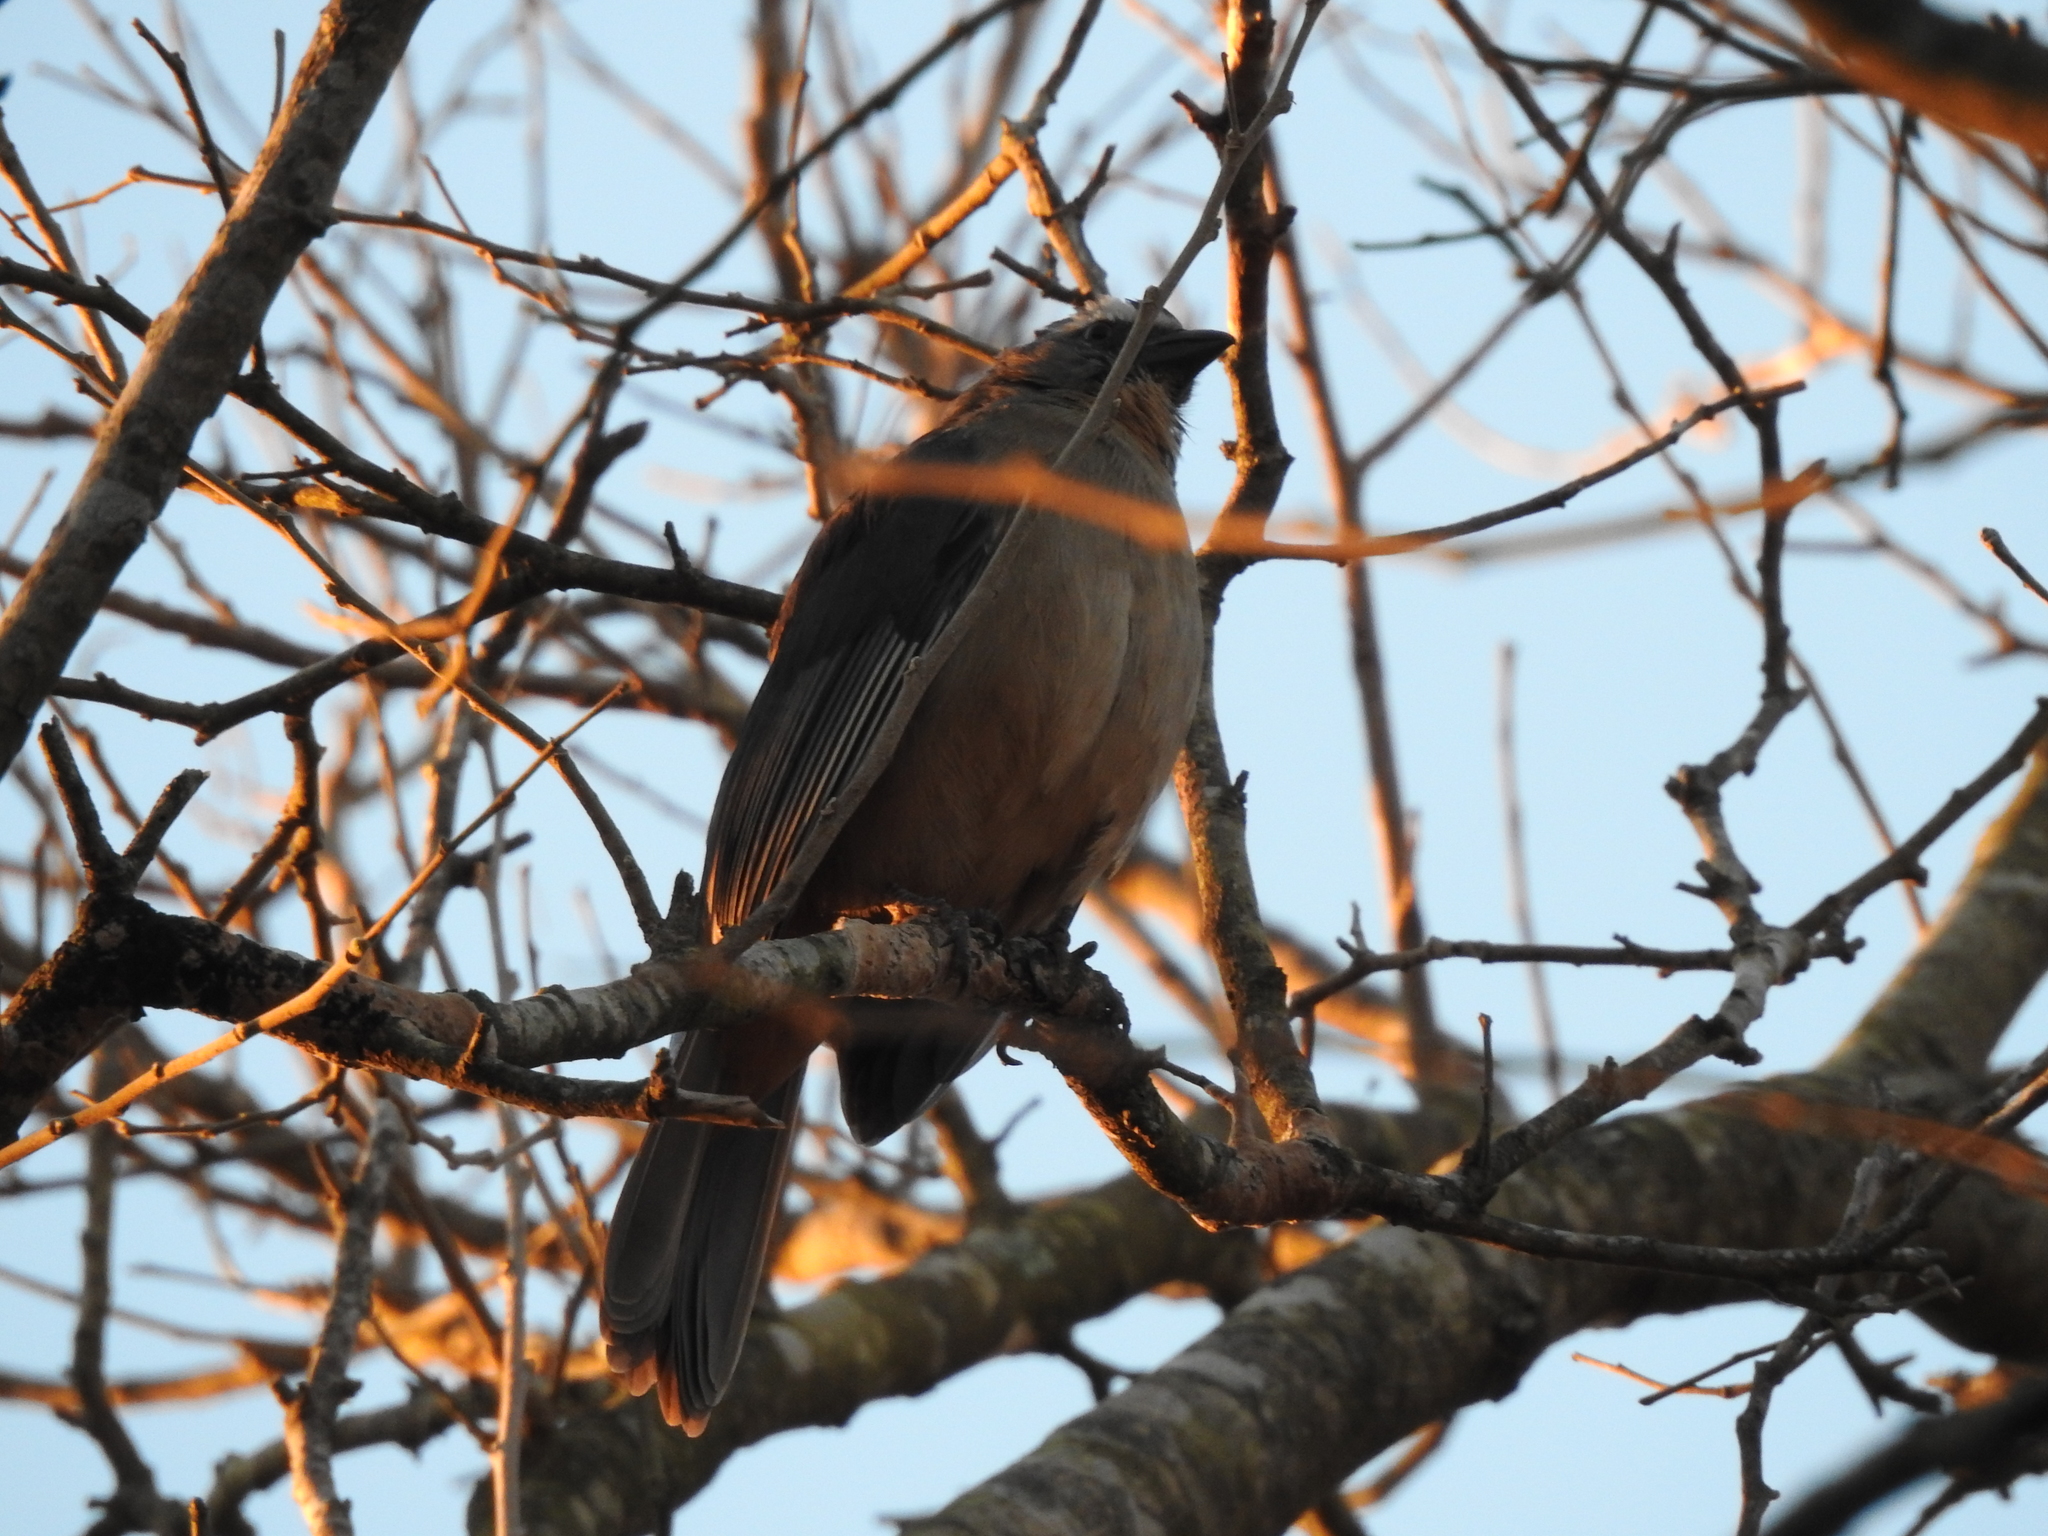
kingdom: Animalia
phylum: Chordata
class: Aves
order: Passeriformes
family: Thraupidae
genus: Saltator
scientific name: Saltator coerulescens
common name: Grayish saltator
